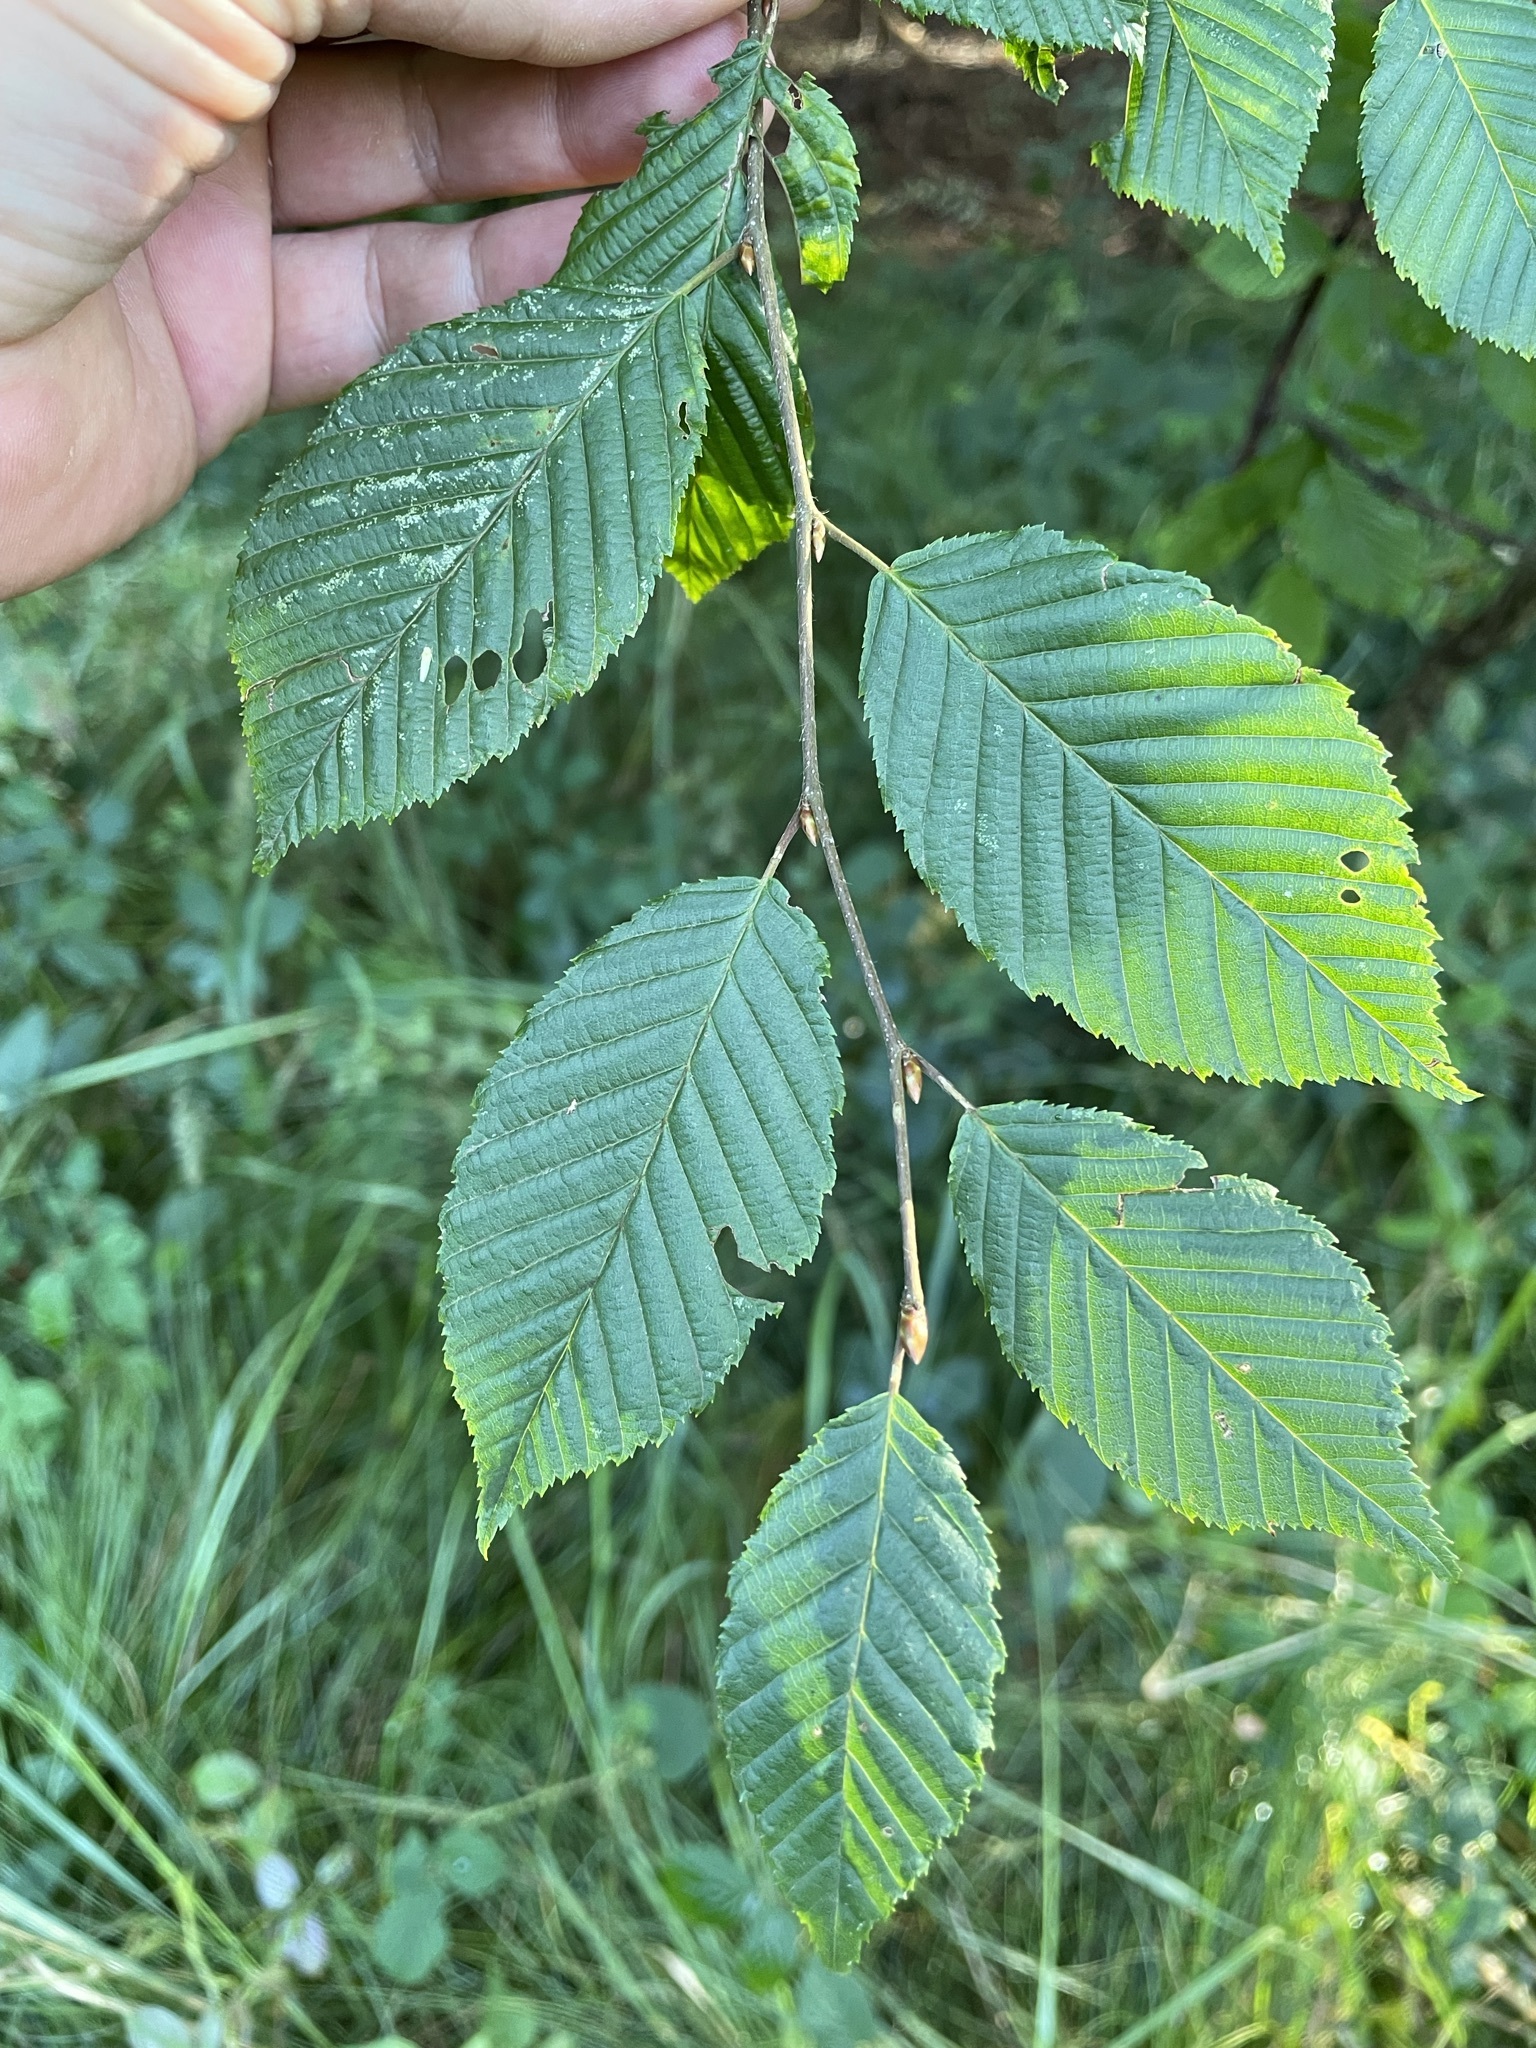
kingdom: Plantae
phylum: Tracheophyta
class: Magnoliopsida
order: Fagales
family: Betulaceae
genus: Carpinus
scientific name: Carpinus betulus
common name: Hornbeam
